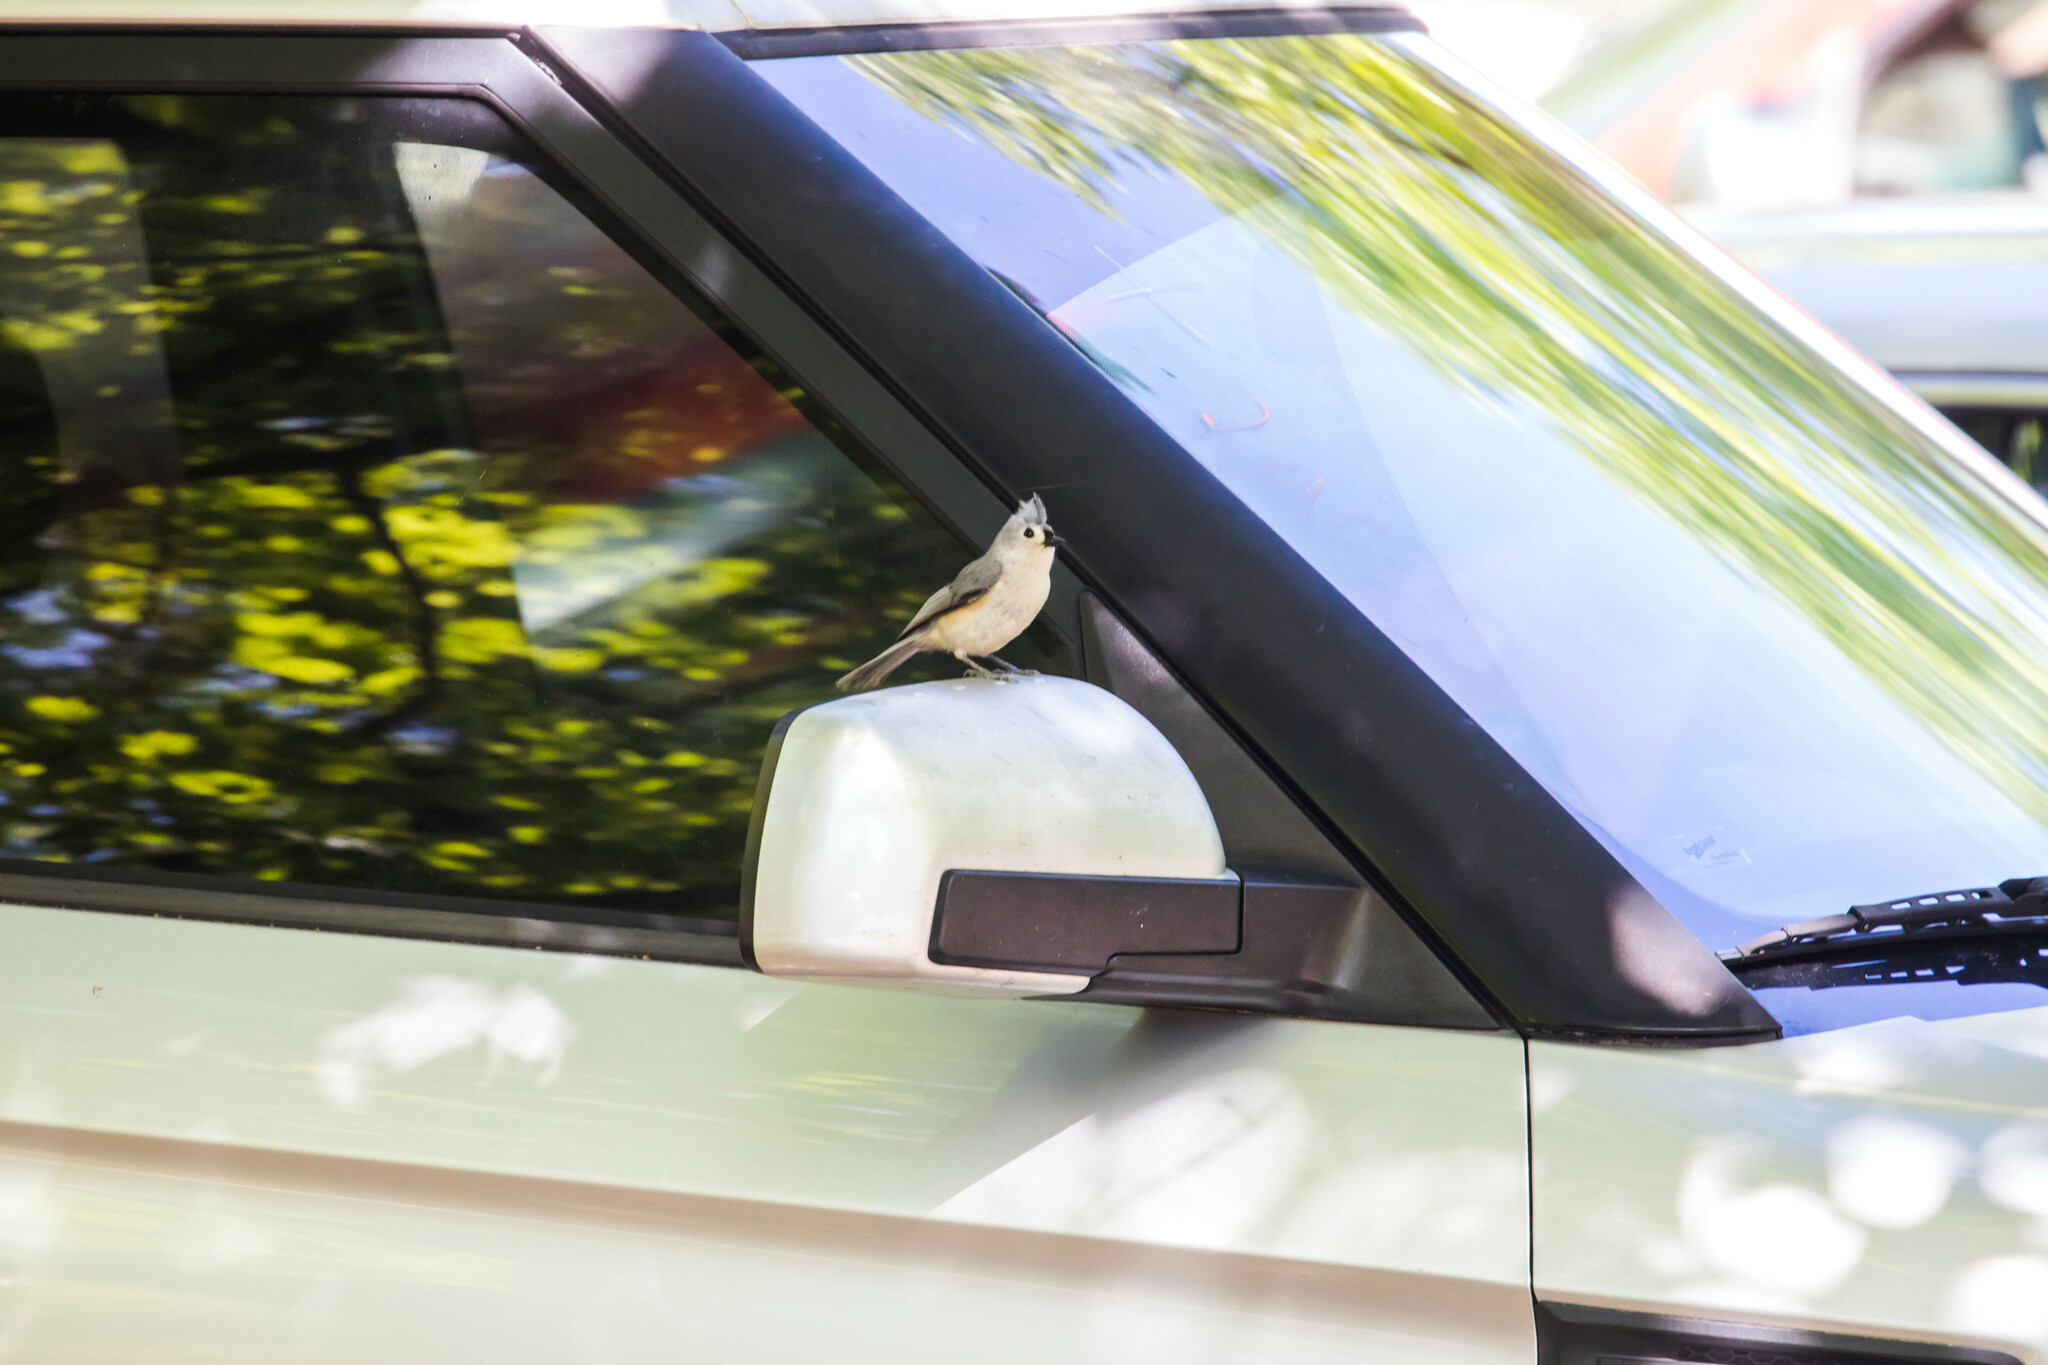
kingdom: Animalia
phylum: Chordata
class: Aves
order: Passeriformes
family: Paridae
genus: Baeolophus
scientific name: Baeolophus bicolor
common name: Tufted titmouse
